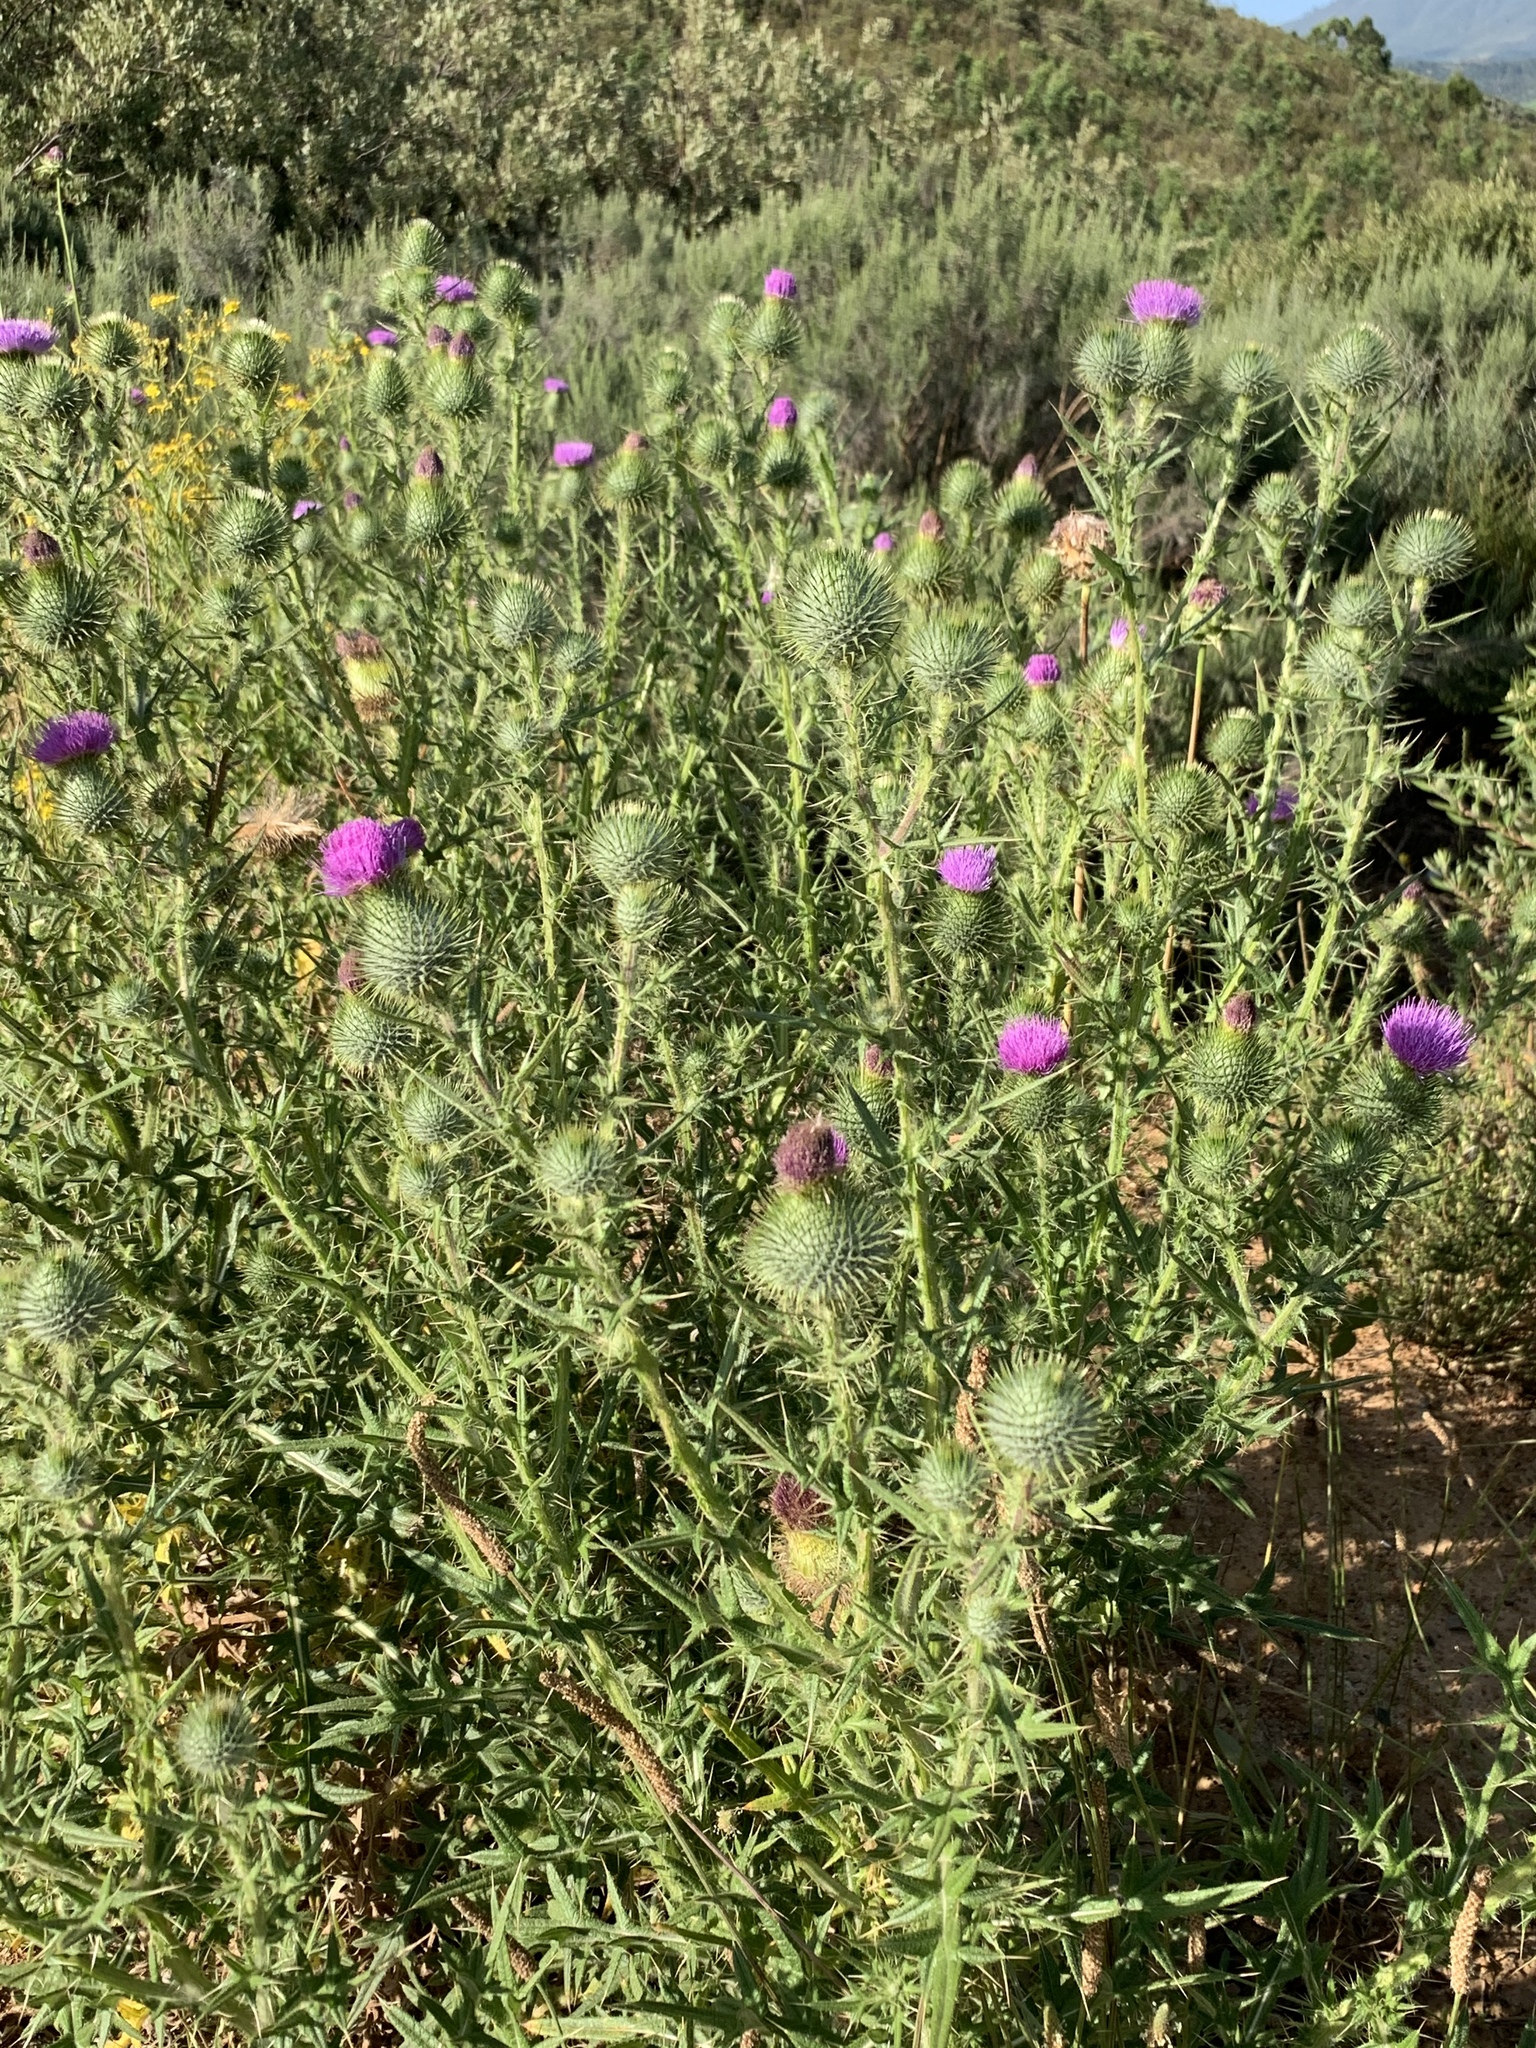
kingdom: Plantae
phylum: Tracheophyta
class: Magnoliopsida
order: Asterales
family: Asteraceae
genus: Cirsium
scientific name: Cirsium vulgare
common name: Bull thistle
